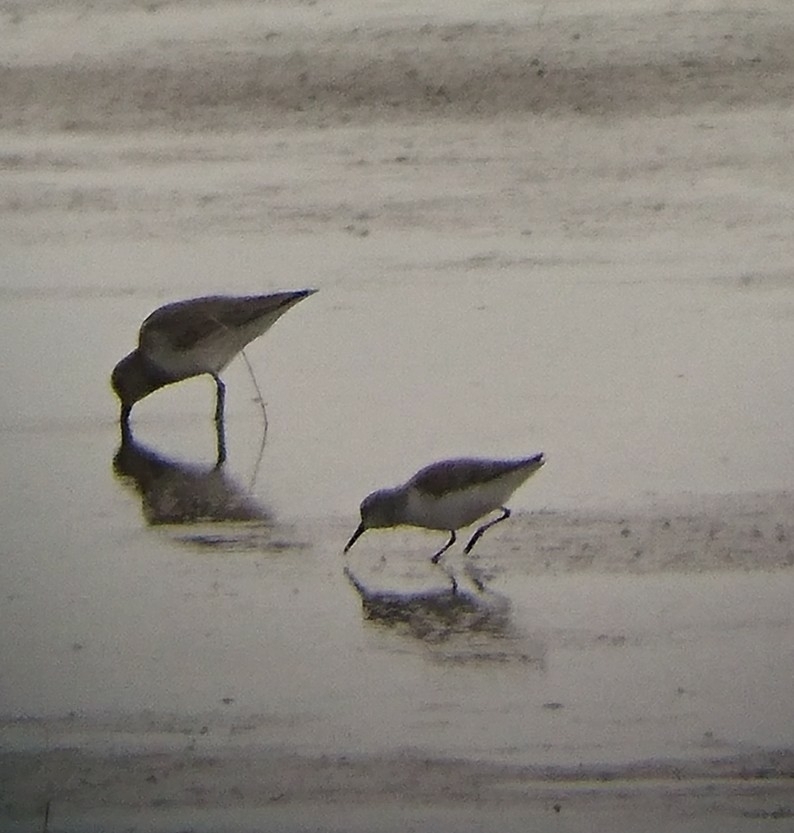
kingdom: Animalia
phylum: Chordata
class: Aves
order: Charadriiformes
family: Scolopacidae
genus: Calidris
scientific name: Calidris mauri
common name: Western sandpiper
